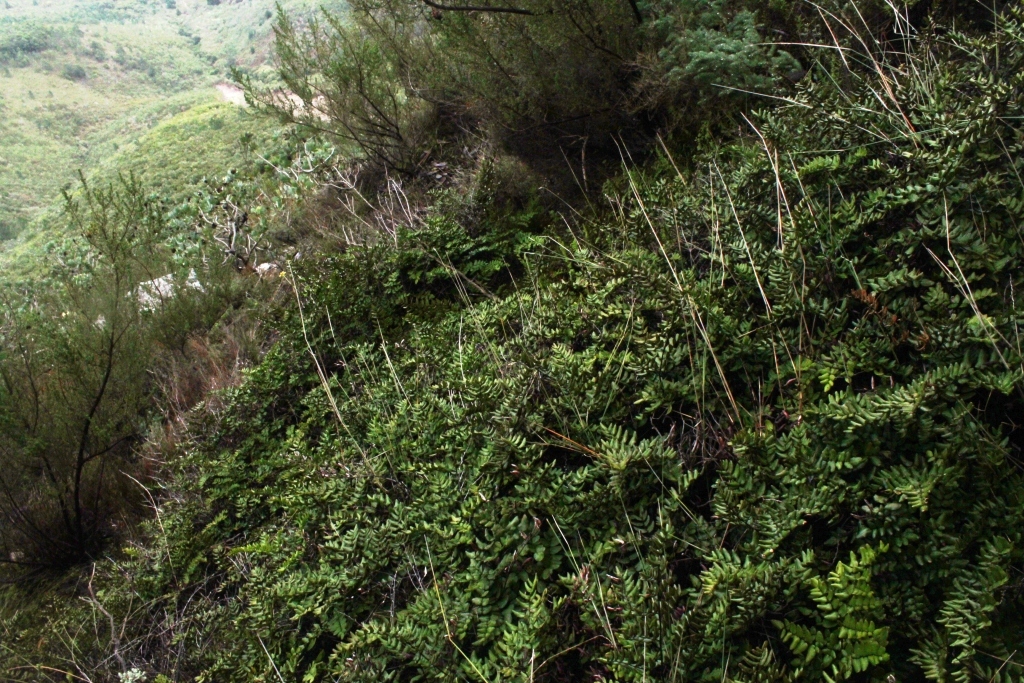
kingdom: Plantae
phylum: Tracheophyta
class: Polypodiopsida
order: Polypodiales
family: Pteridaceae
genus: Cheilanthes
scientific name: Cheilanthes viridis
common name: Green cliffbrake
